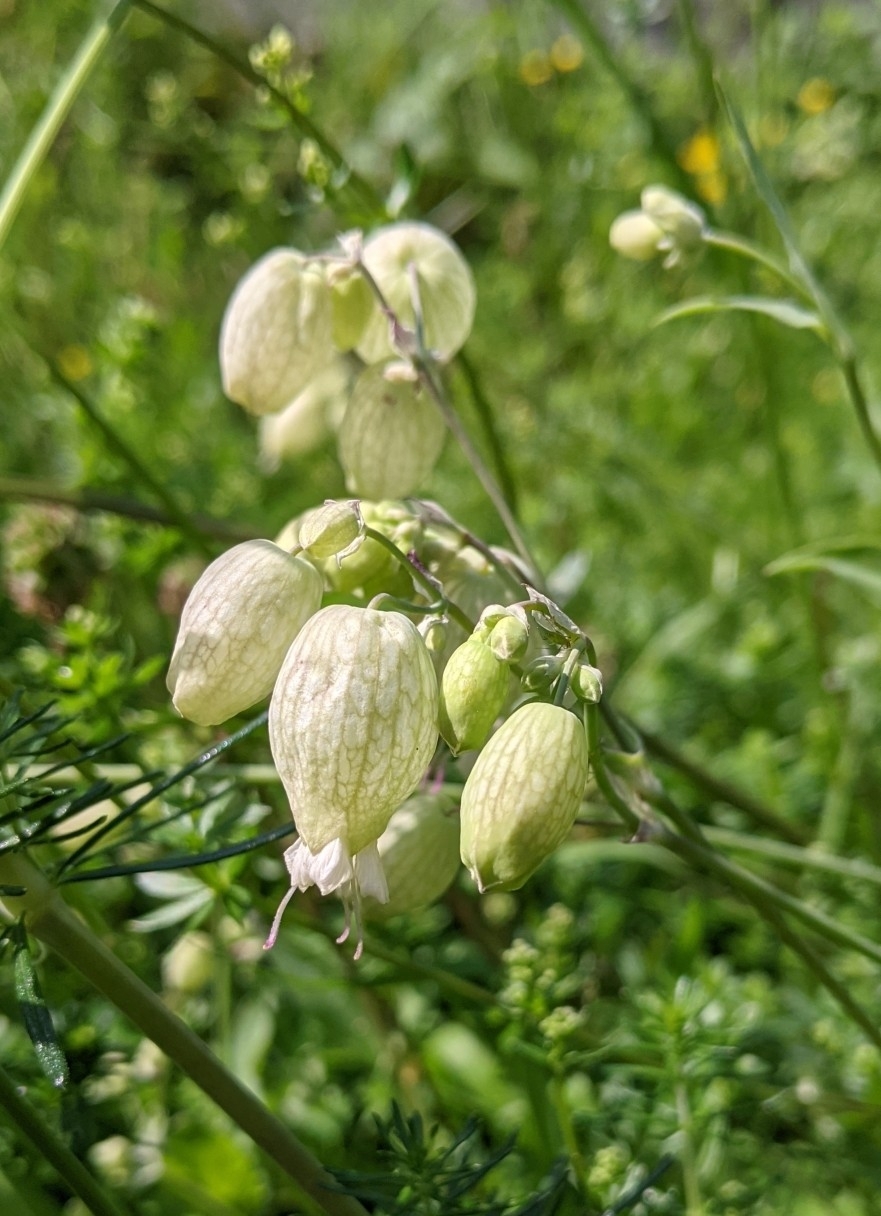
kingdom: Plantae
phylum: Tracheophyta
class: Magnoliopsida
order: Caryophyllales
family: Caryophyllaceae
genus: Silene
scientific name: Silene vulgaris
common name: Bladder campion
